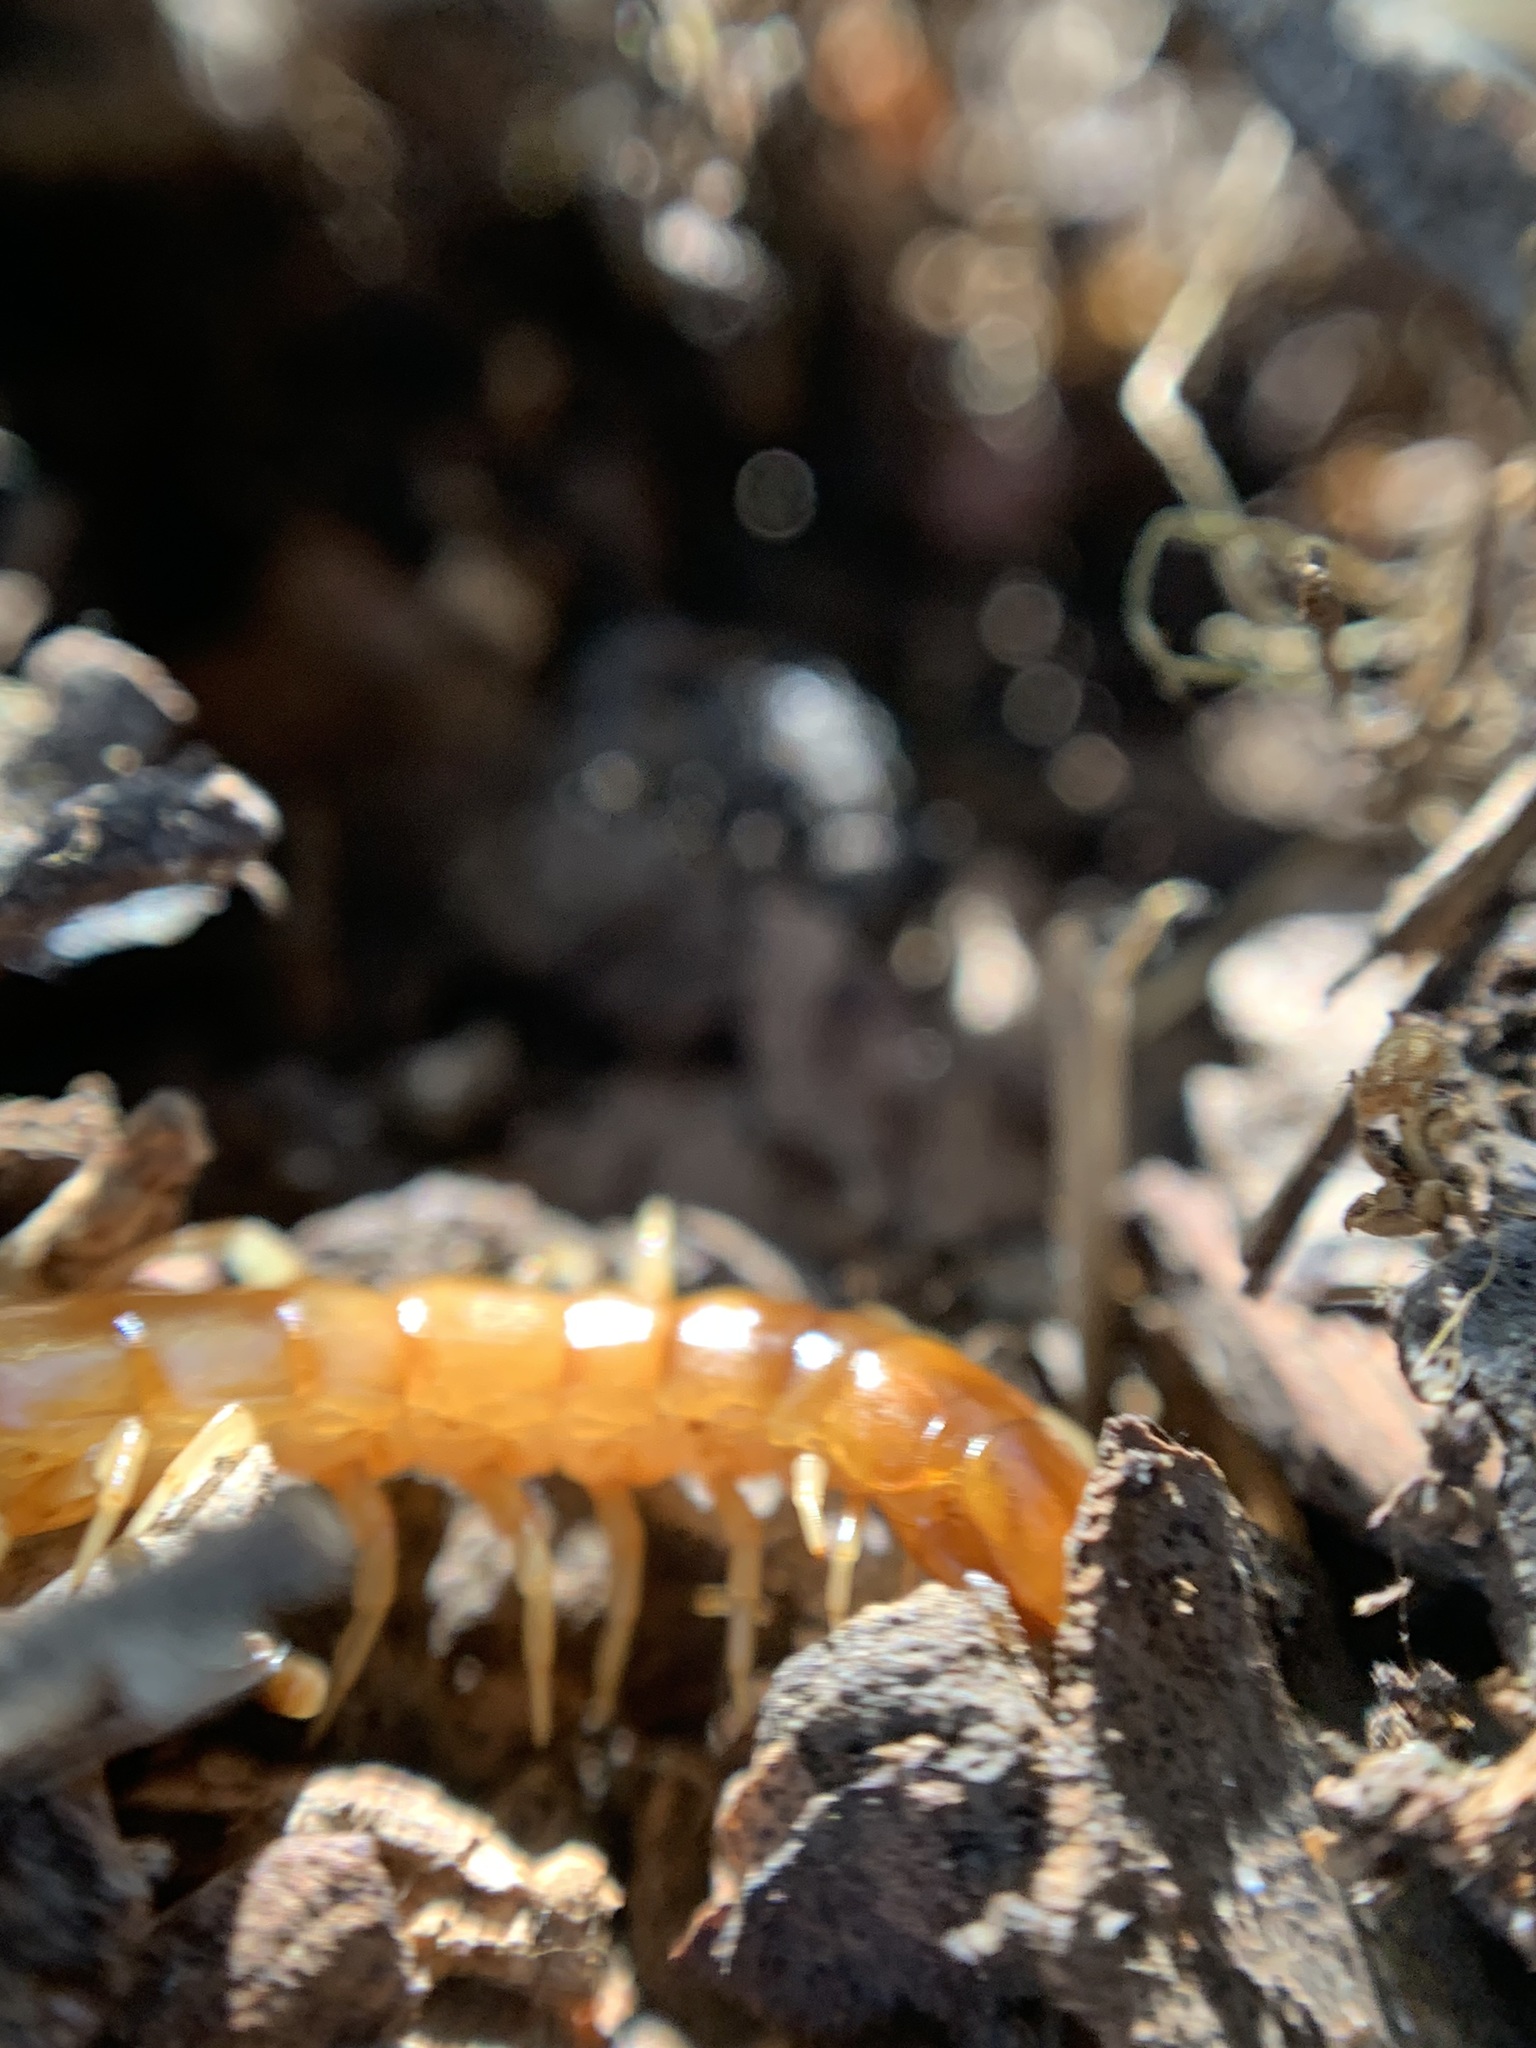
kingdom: Animalia
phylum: Arthropoda
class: Chilopoda
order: Scolopendromorpha
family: Scolopocryptopidae
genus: Scolopocryptops
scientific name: Scolopocryptops gracilis
